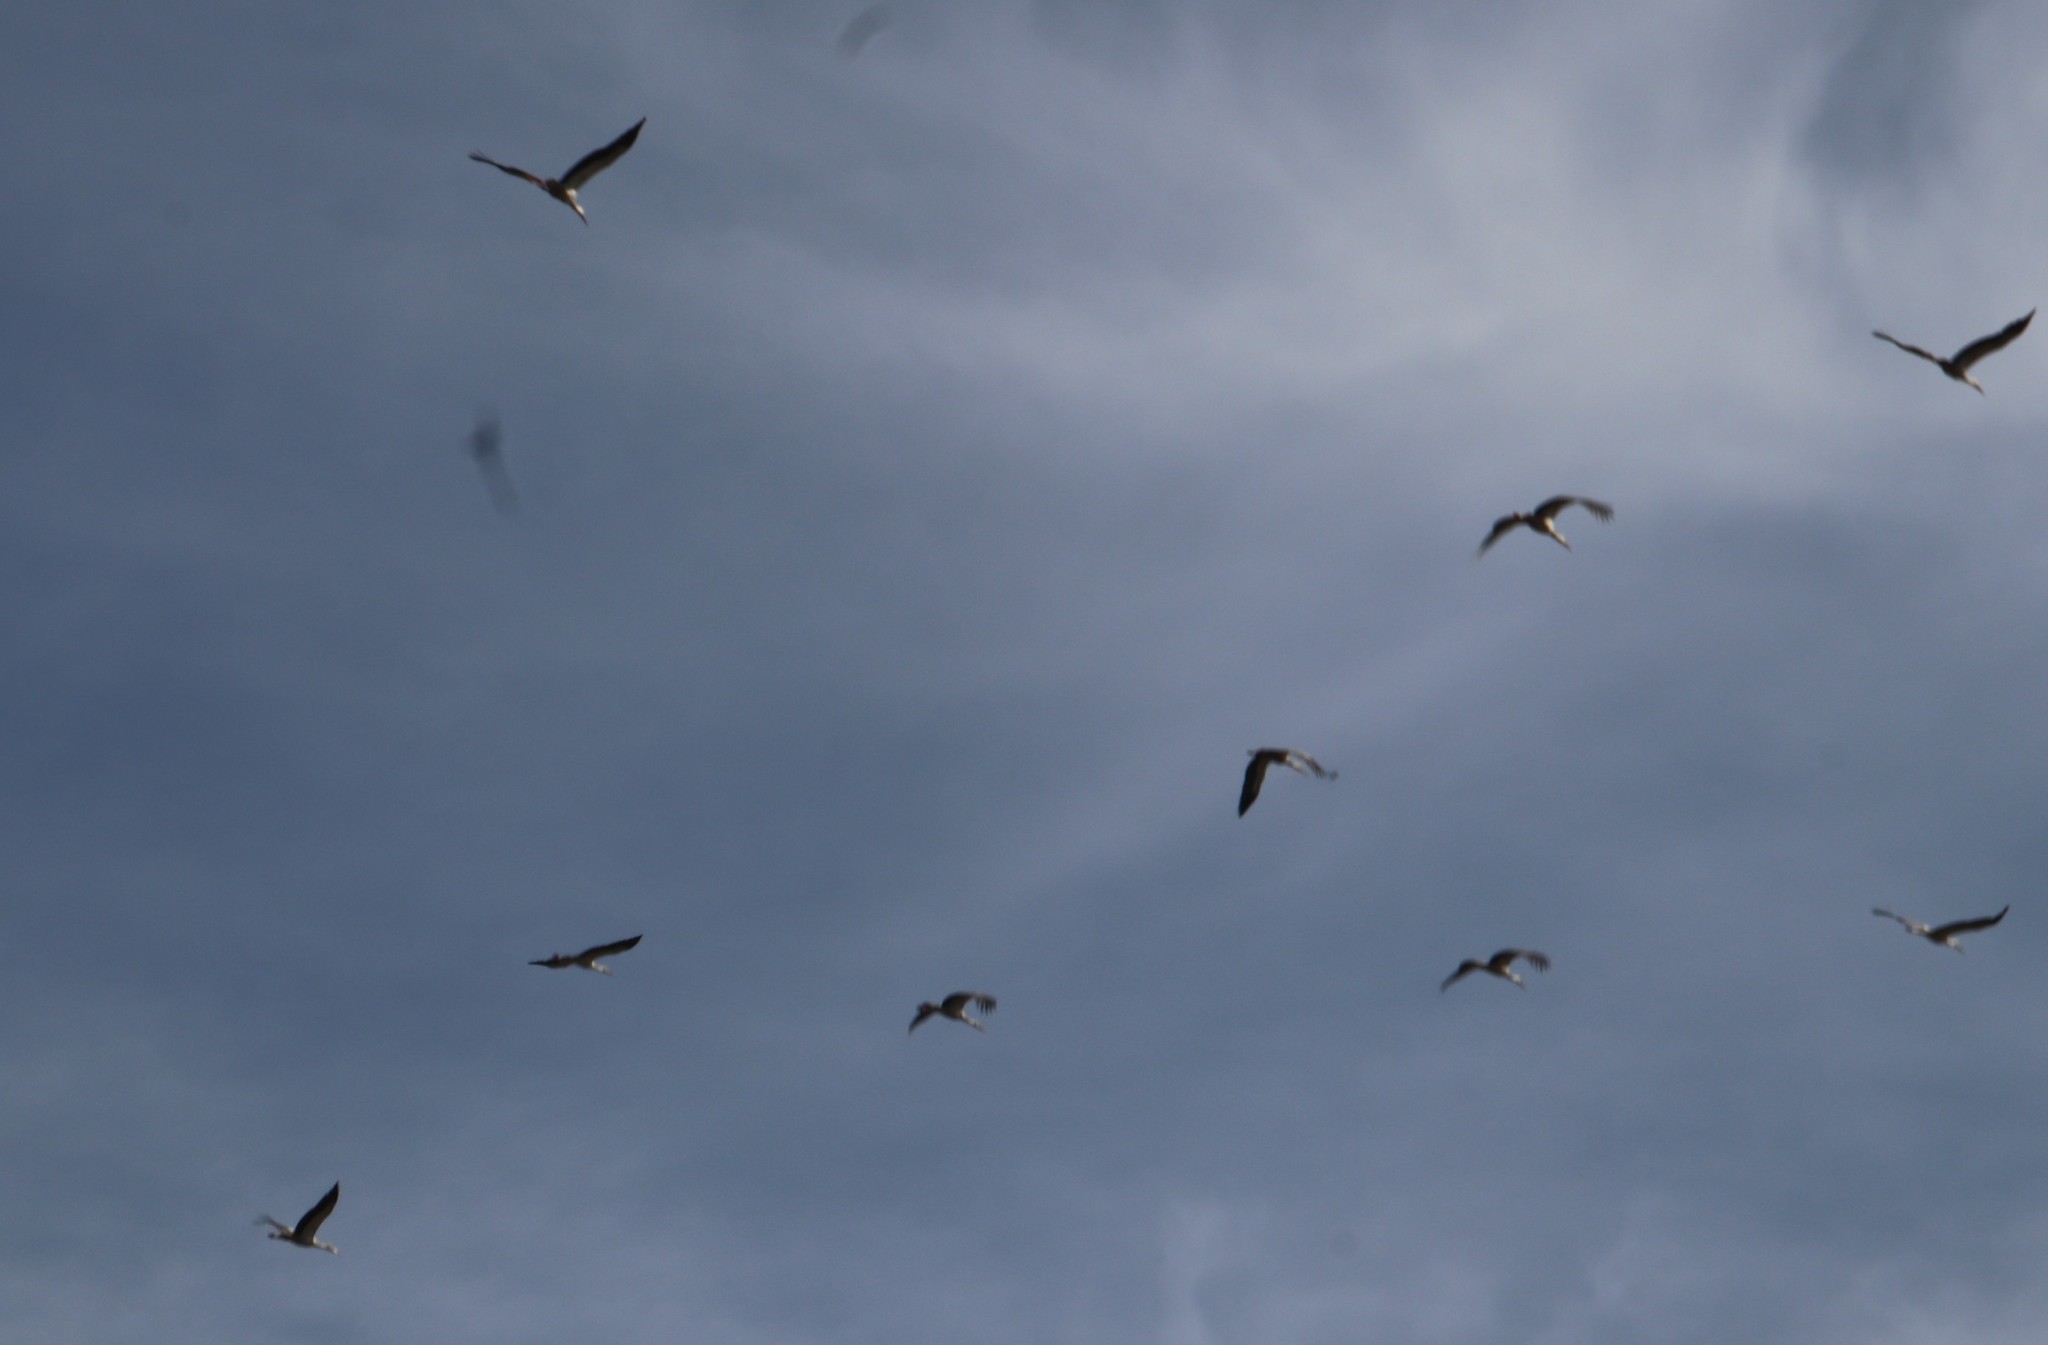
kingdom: Animalia
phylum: Chordata
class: Aves
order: Ciconiiformes
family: Ciconiidae
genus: Ciconia
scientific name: Ciconia ciconia
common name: White stork
